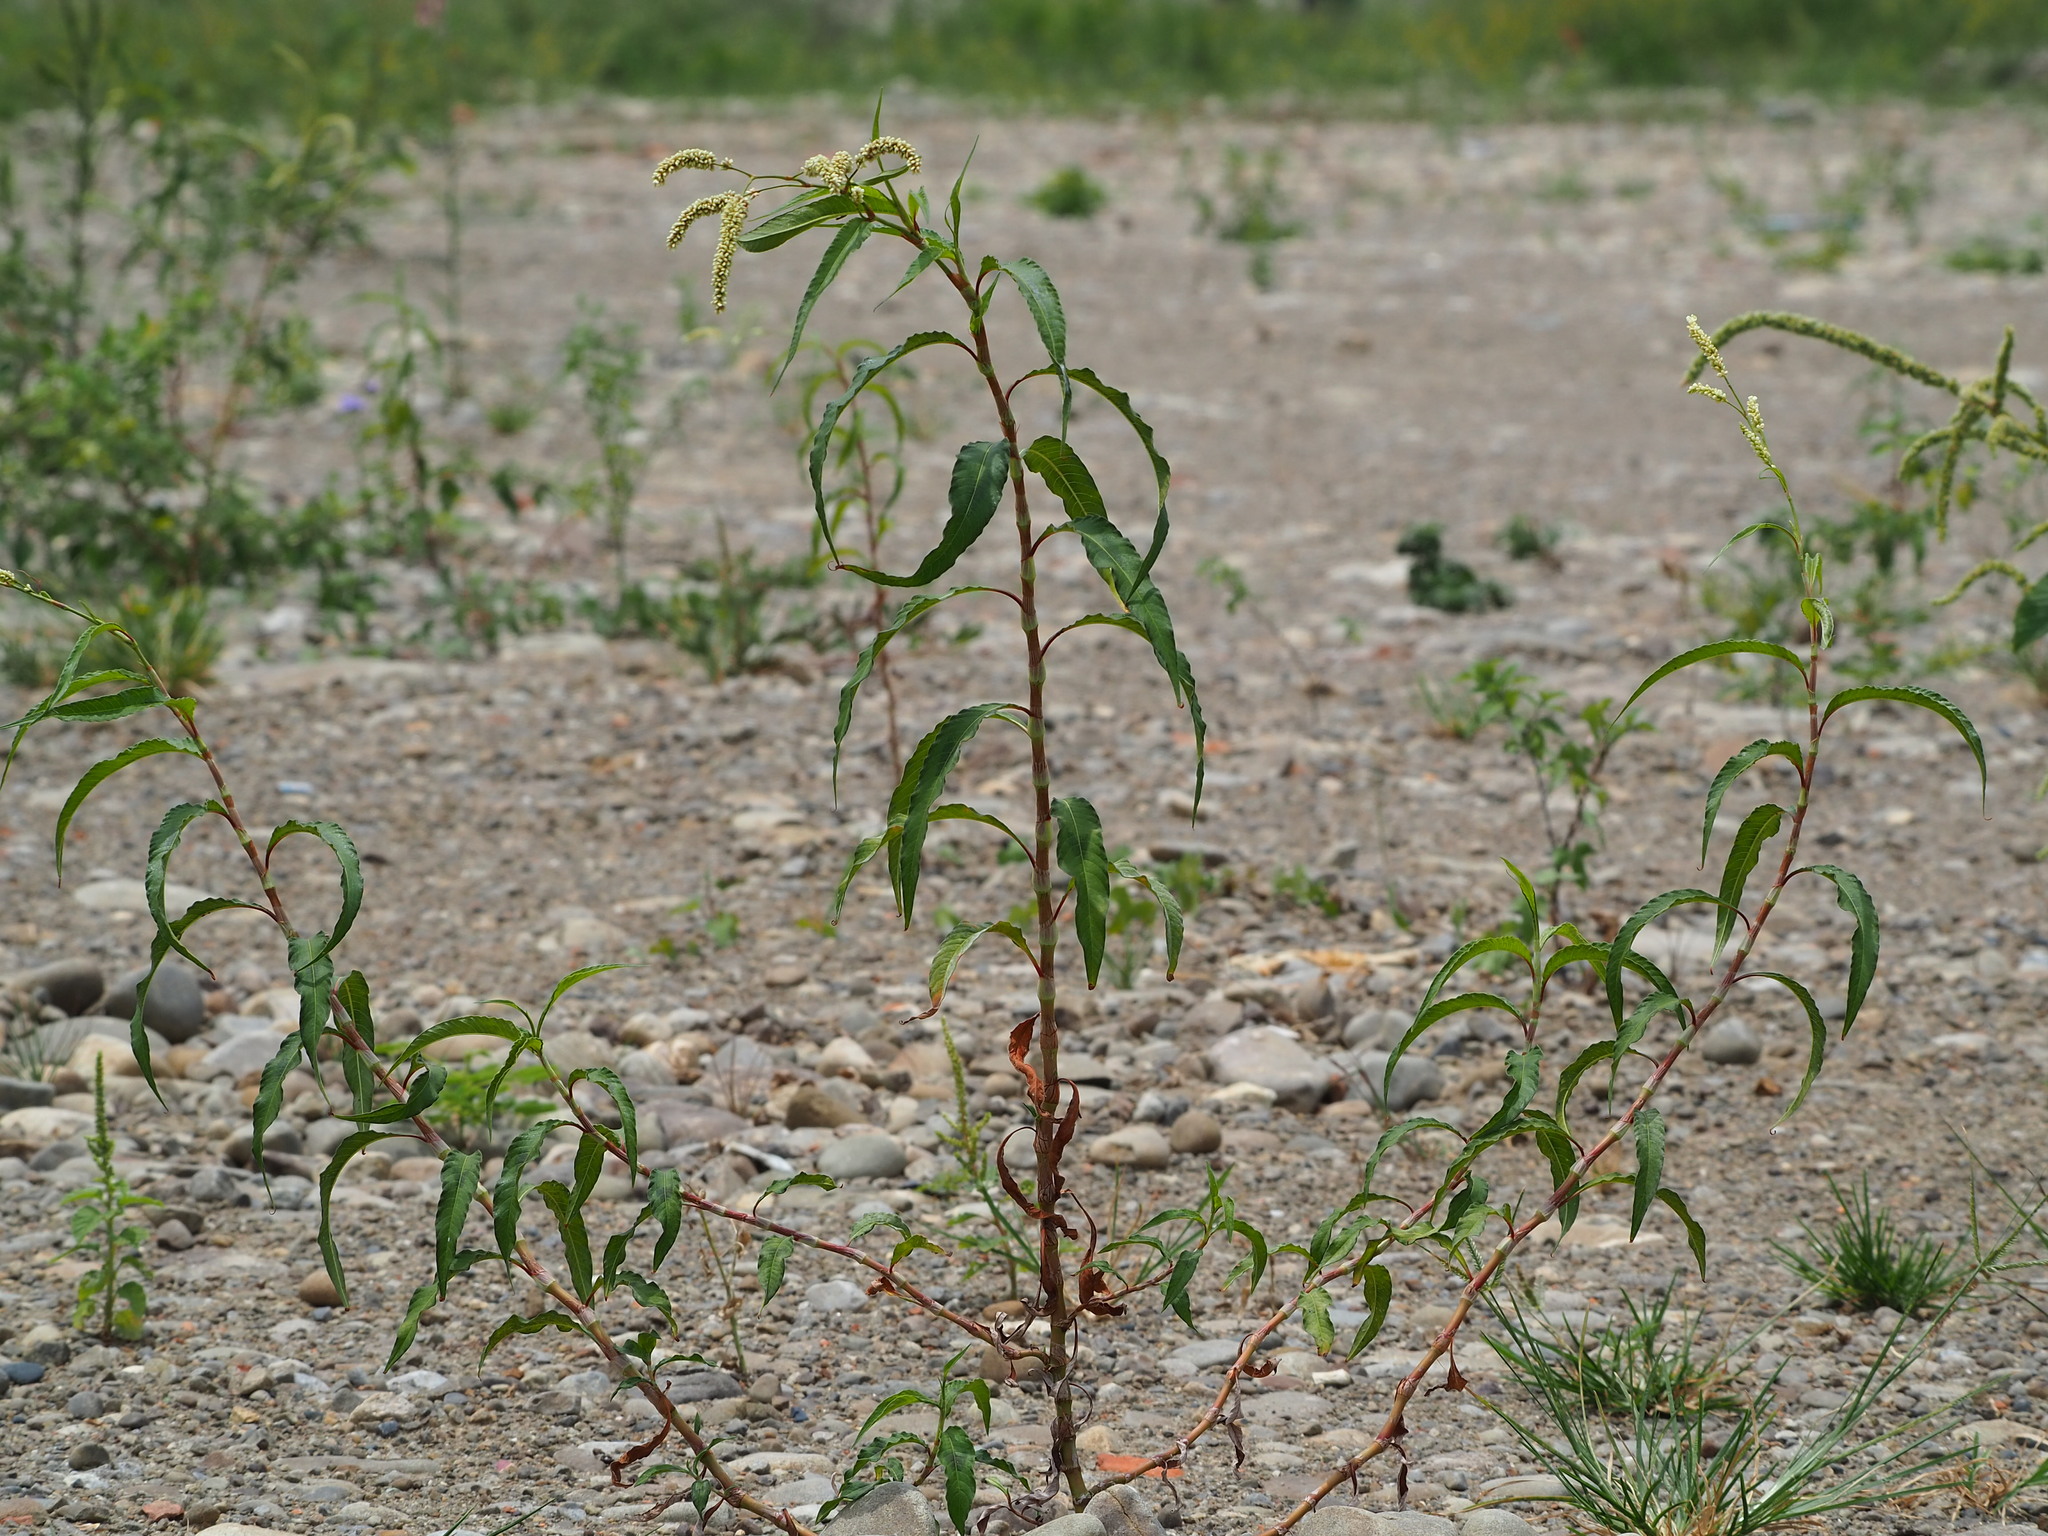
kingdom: Plantae
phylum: Tracheophyta
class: Magnoliopsida
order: Caryophyllales
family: Polygonaceae
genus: Persicaria
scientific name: Persicaria lapathifolia
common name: Curlytop knotweed
